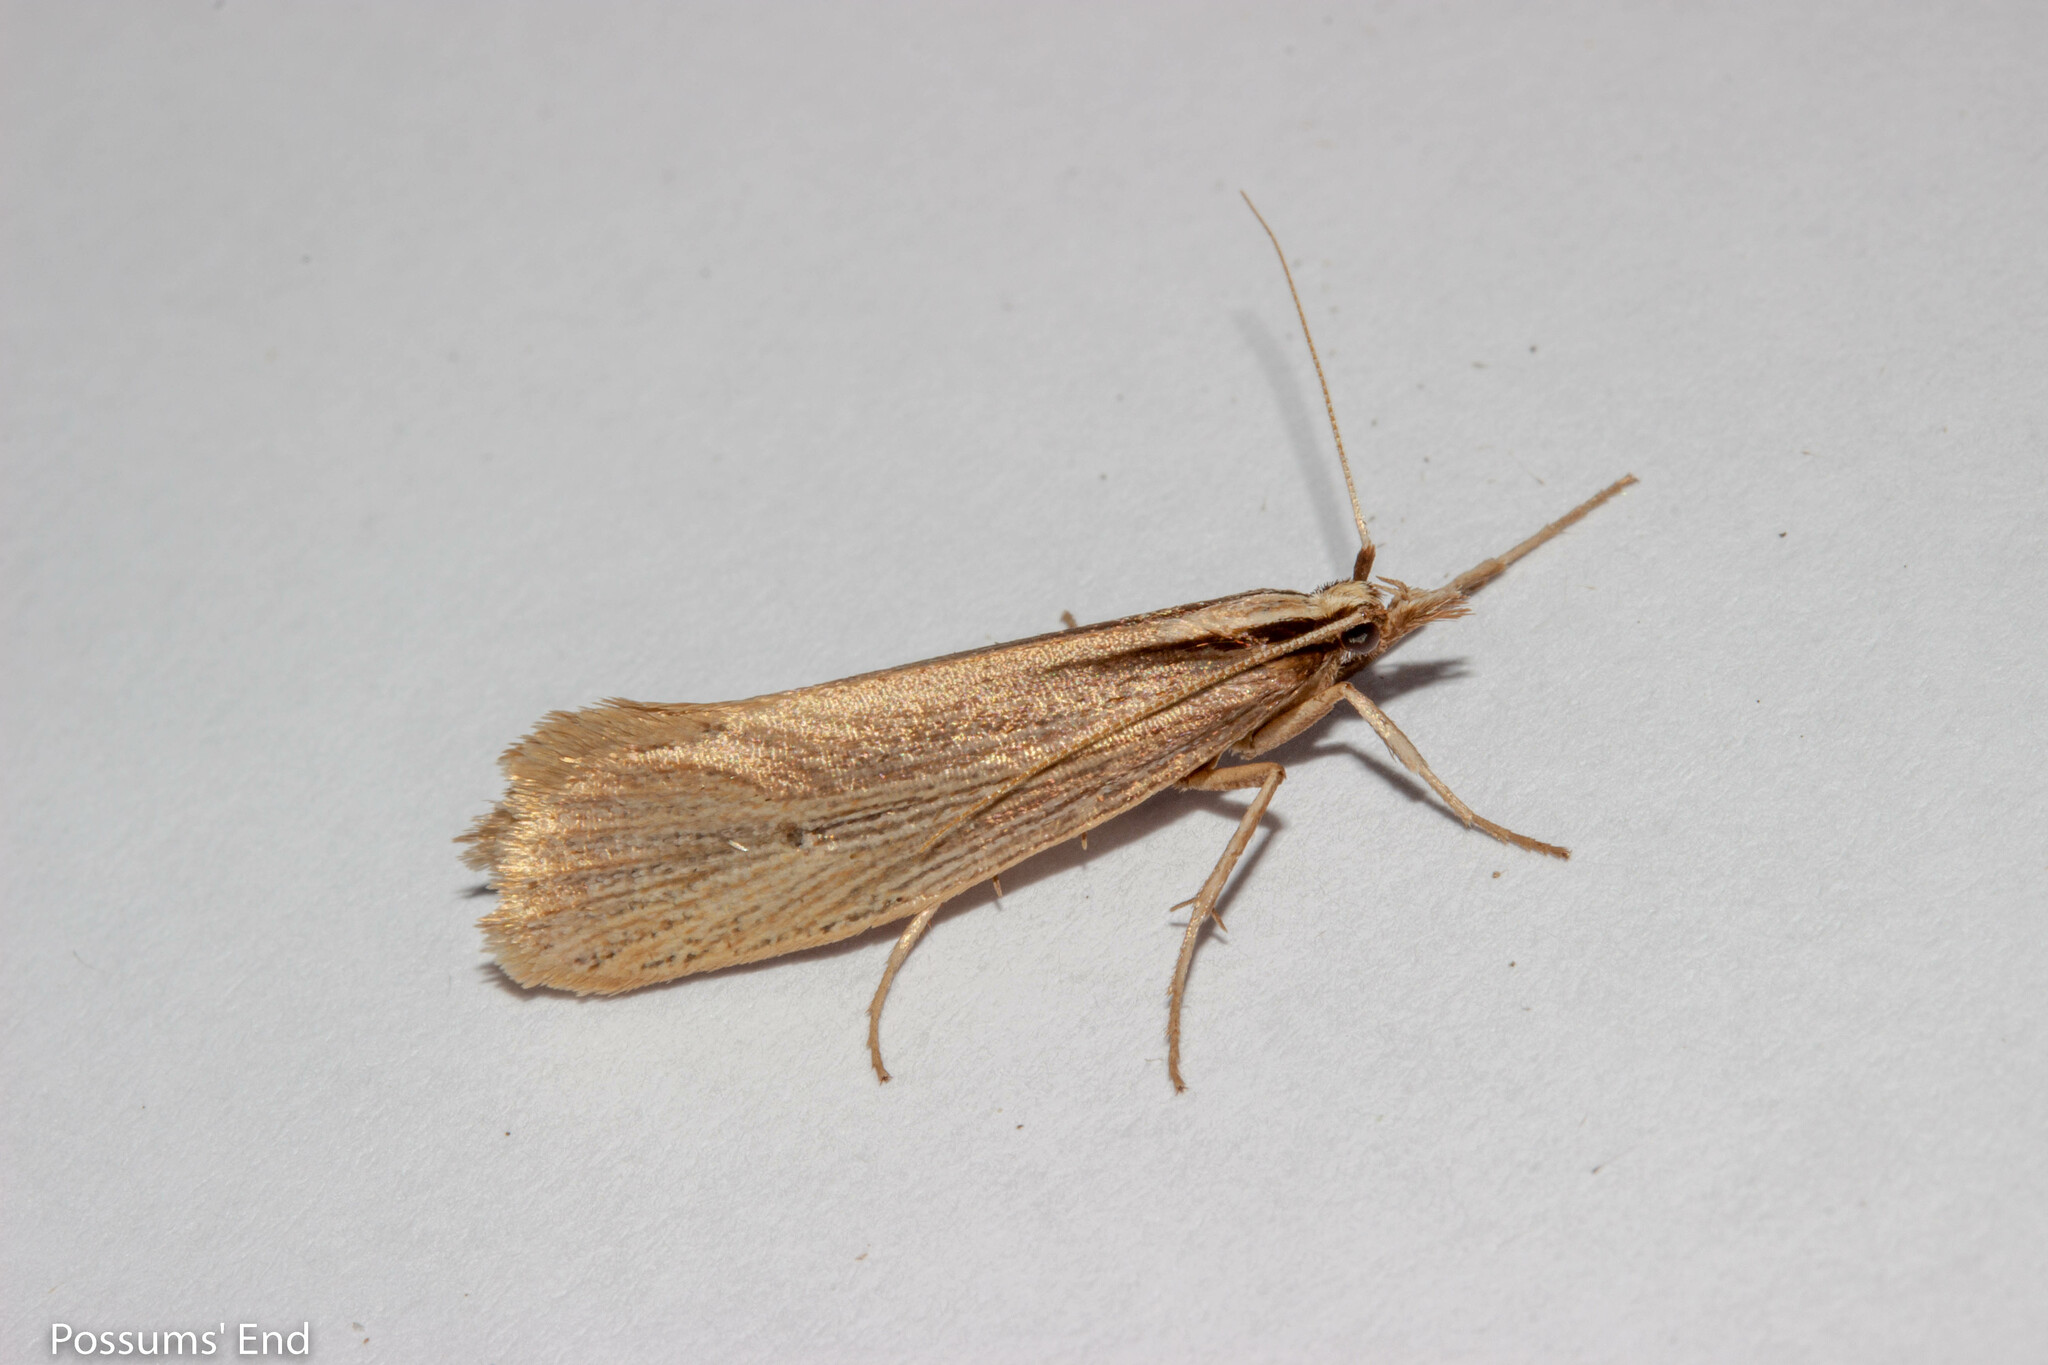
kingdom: Animalia
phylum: Arthropoda
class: Insecta
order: Lepidoptera
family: Plutellidae
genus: Proditrix
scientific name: Proditrix megalynta
